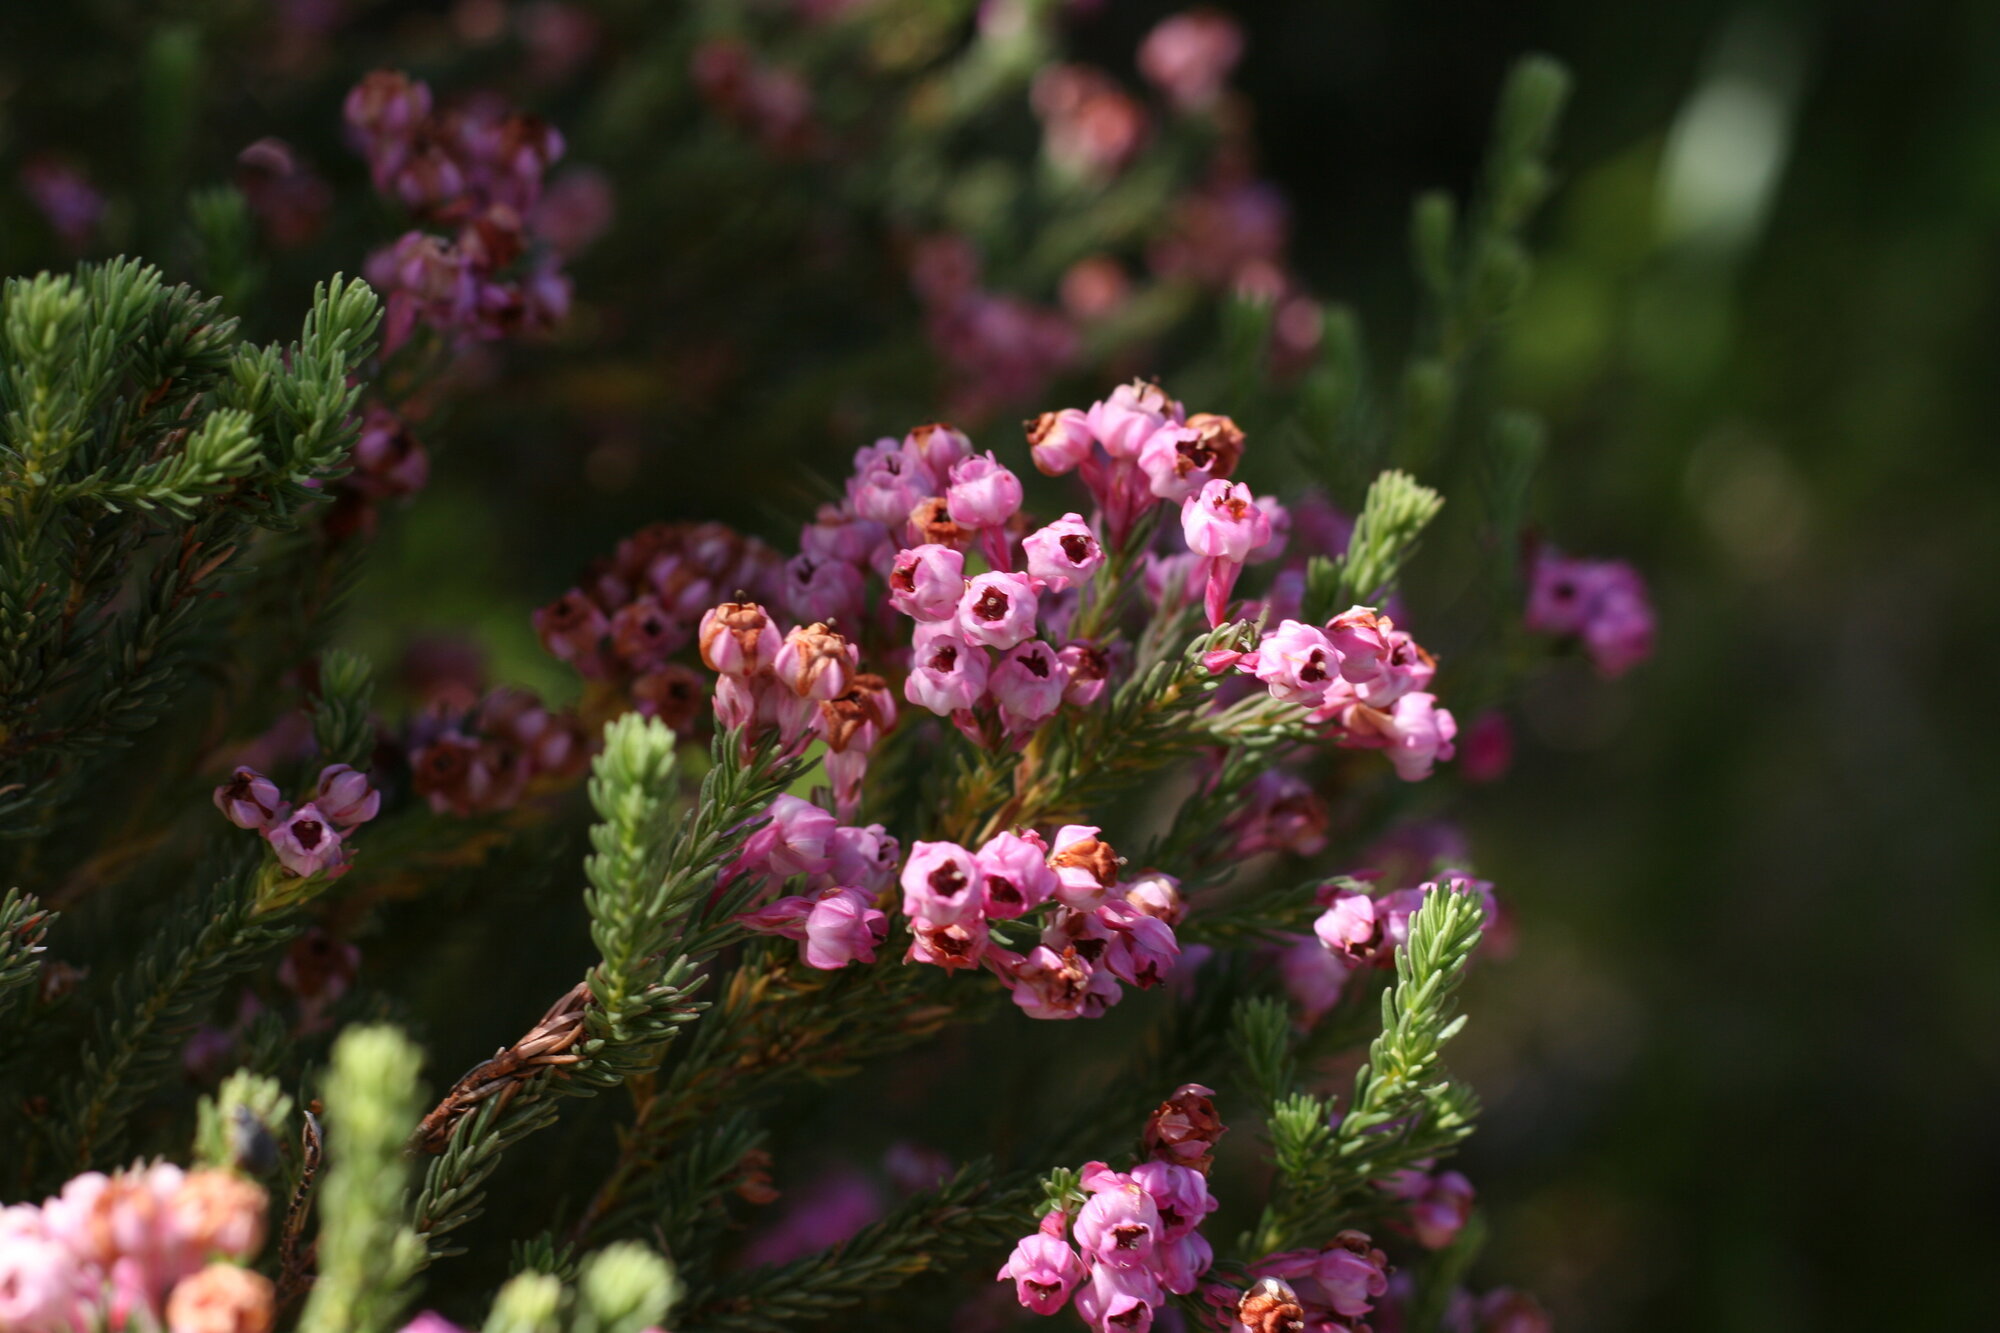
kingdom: Plantae
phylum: Tracheophyta
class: Magnoliopsida
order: Ericales
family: Ericaceae
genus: Erica
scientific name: Erica baccans
